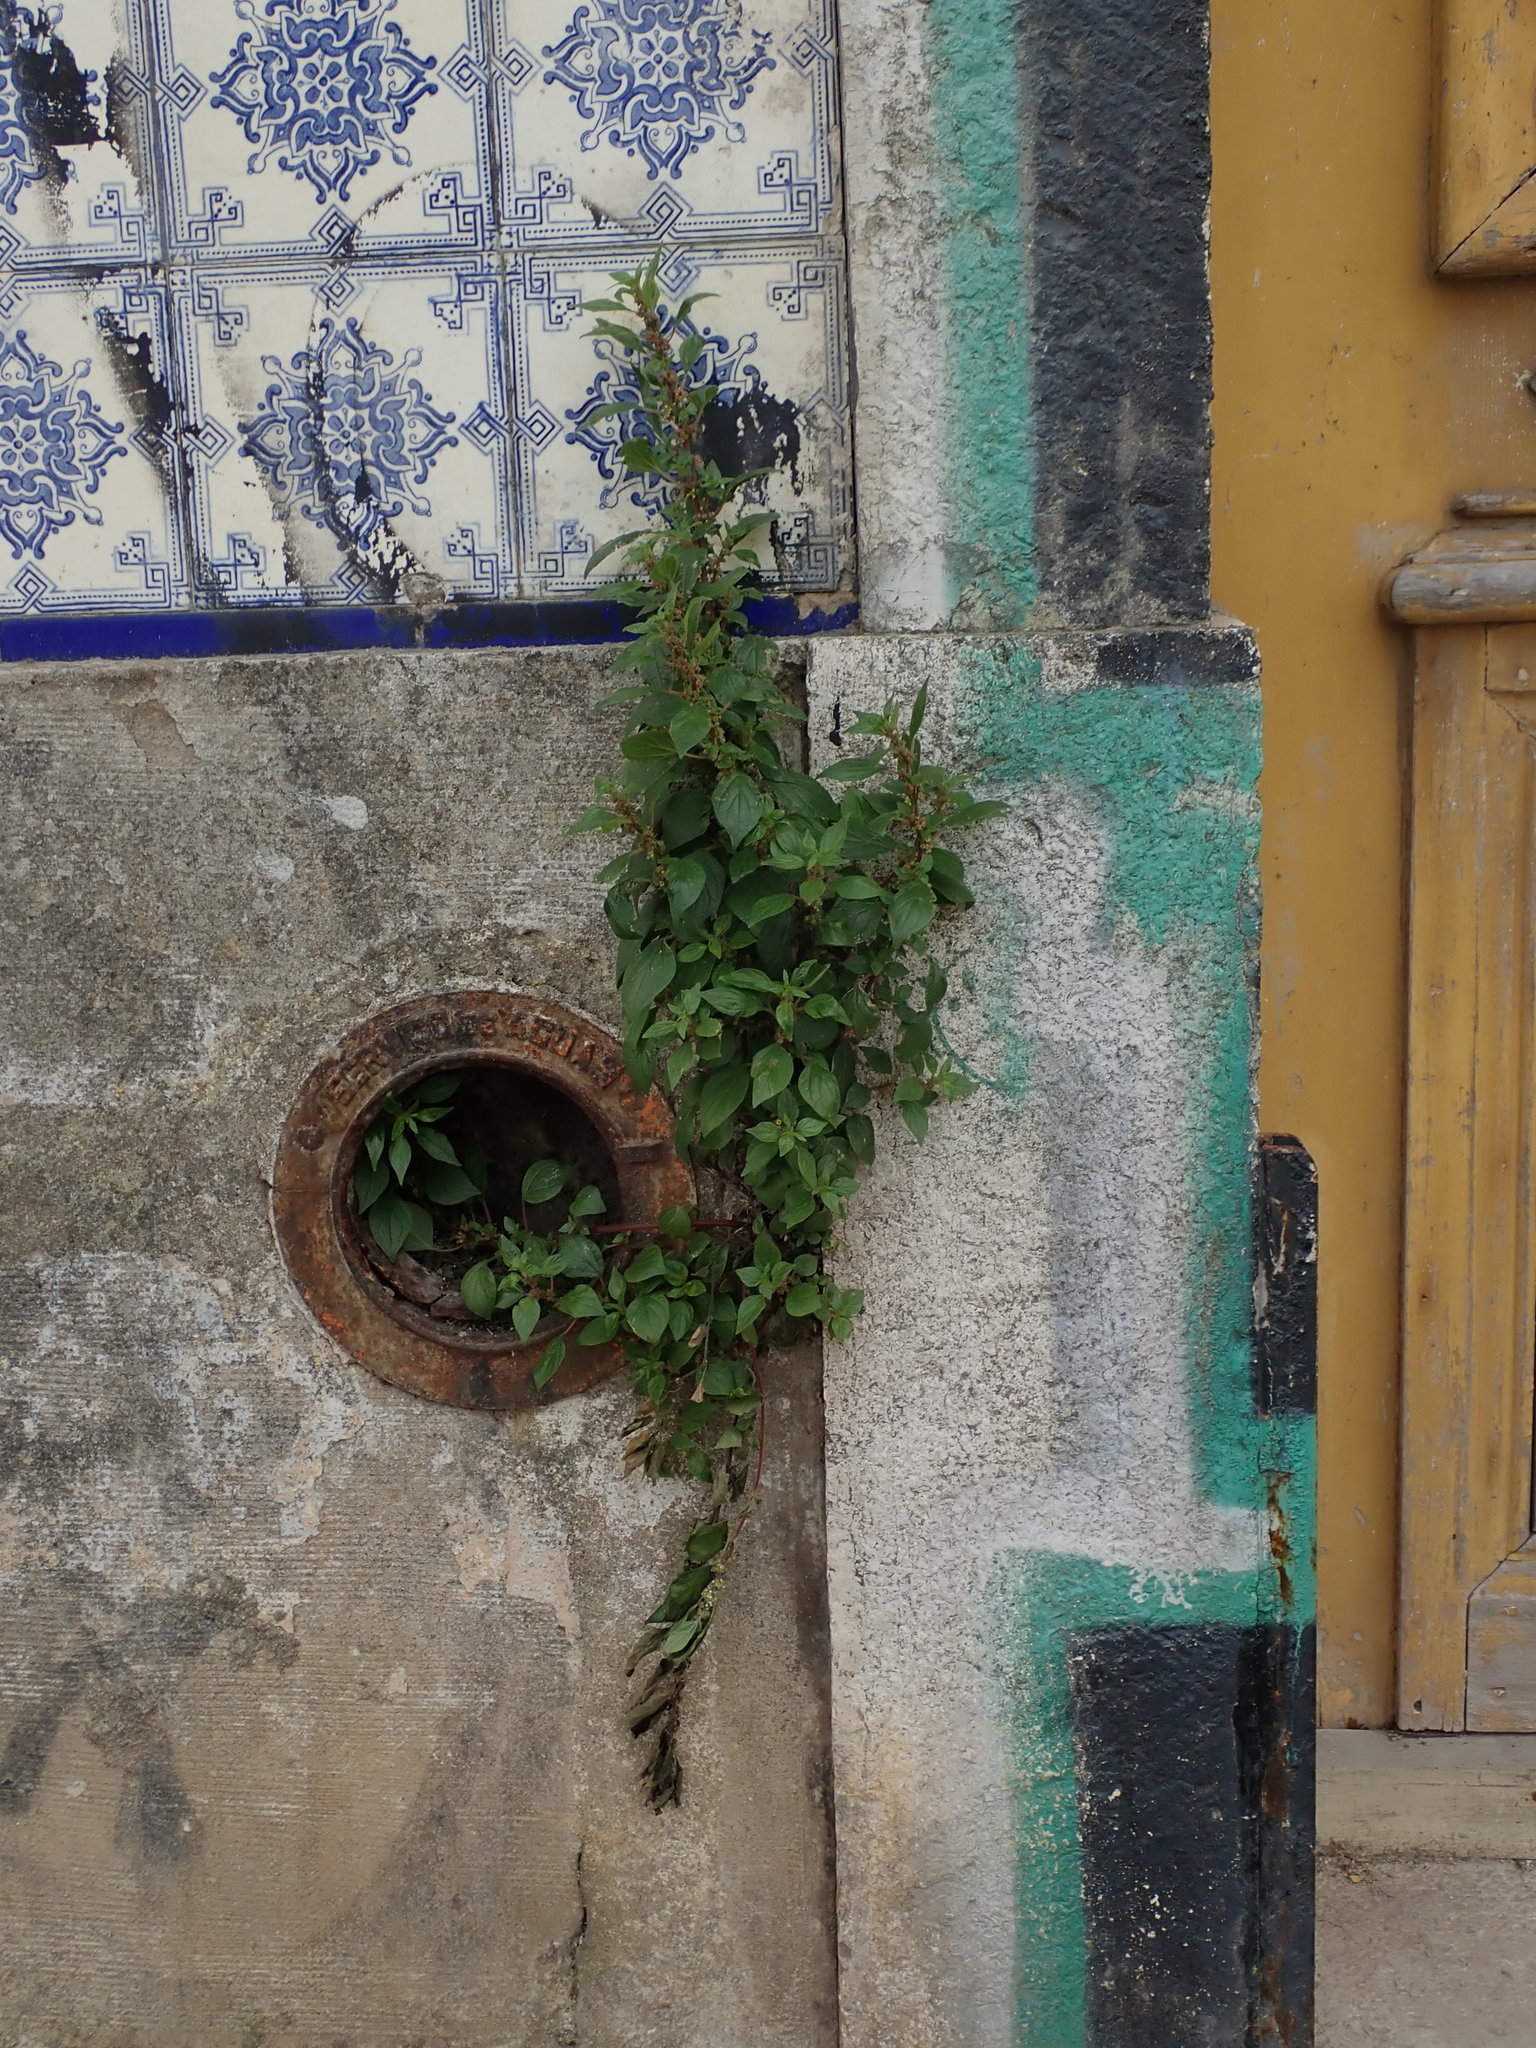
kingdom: Plantae
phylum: Tracheophyta
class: Magnoliopsida
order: Rosales
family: Urticaceae
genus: Parietaria
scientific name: Parietaria judaica
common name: Pellitory-of-the-wall
